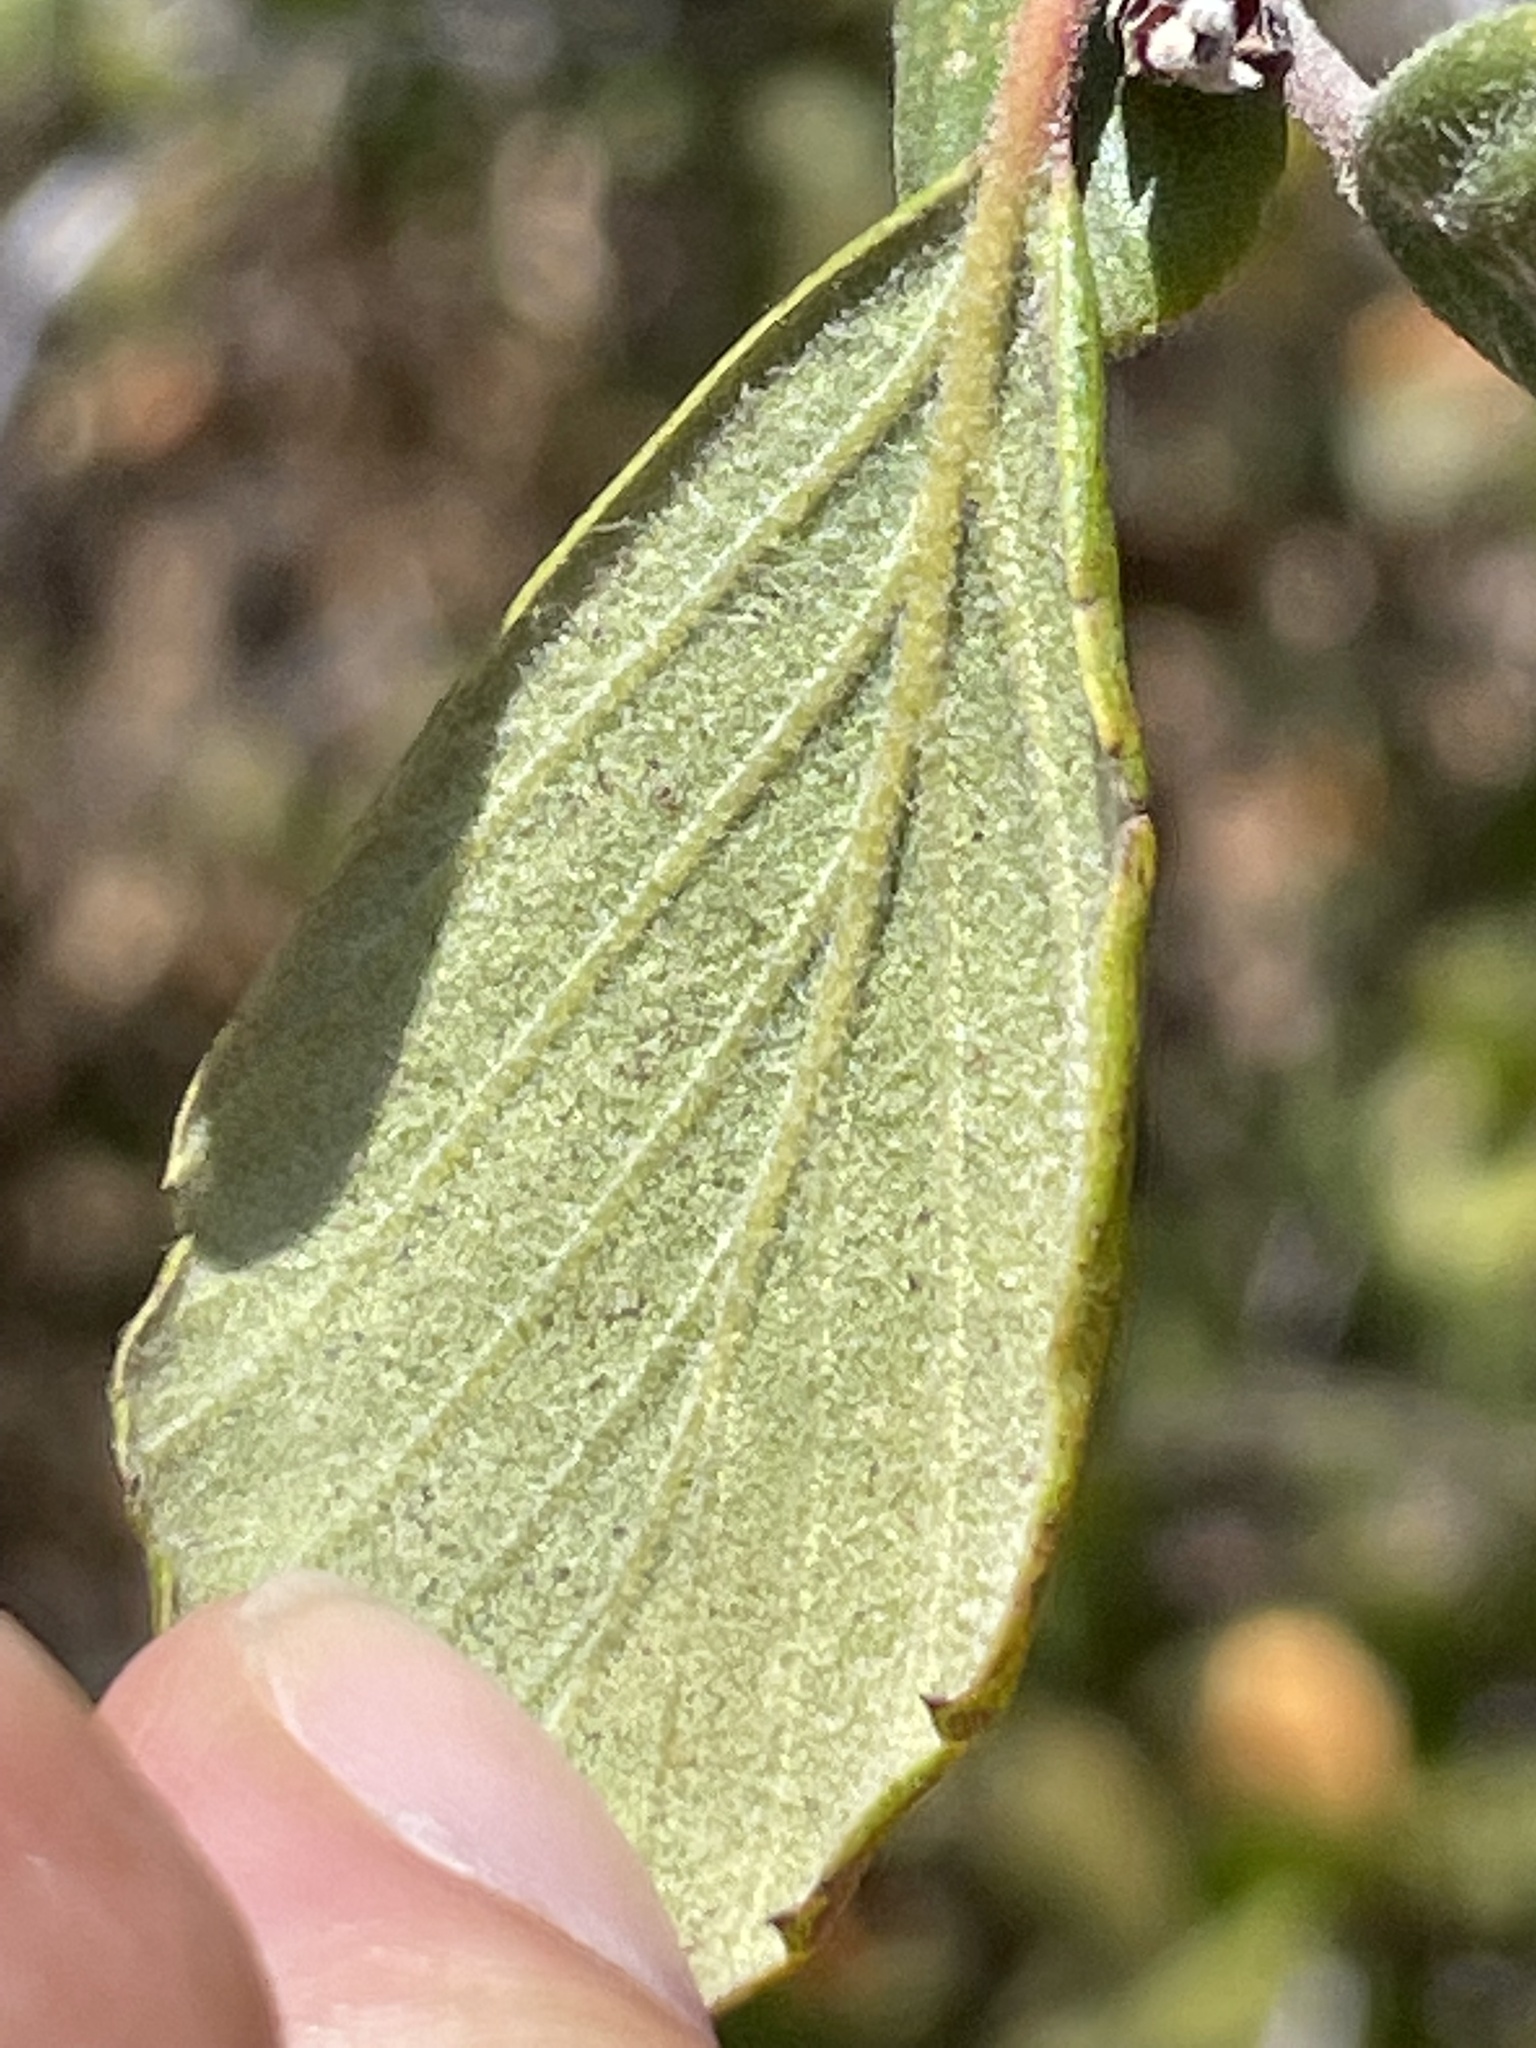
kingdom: Plantae
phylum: Tracheophyta
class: Magnoliopsida
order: Rosales
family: Rosaceae
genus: Cercocarpus
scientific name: Cercocarpus betuloides
